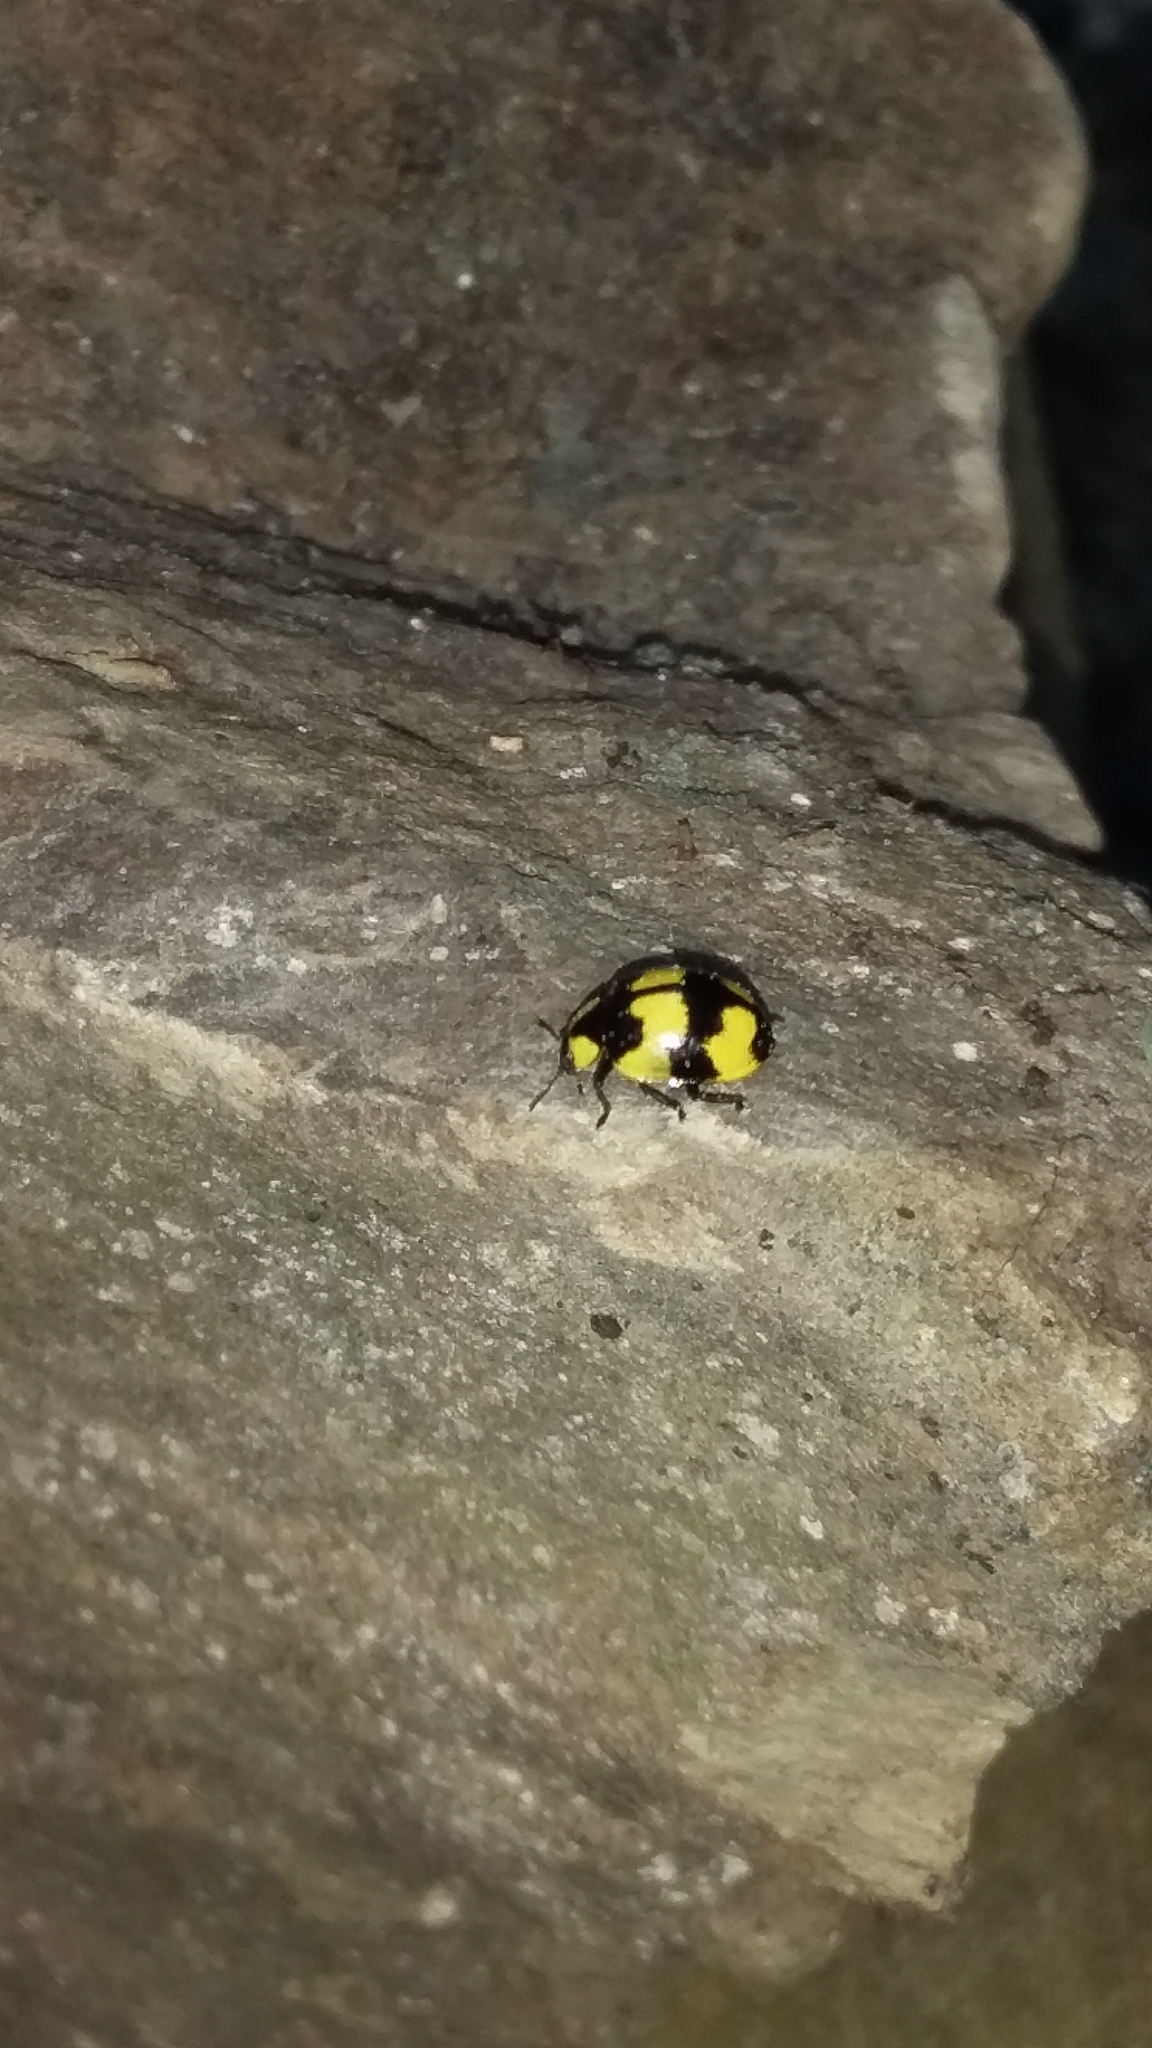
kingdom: Animalia
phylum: Arthropoda
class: Insecta
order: Coleoptera
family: Coccinellidae
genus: Illeis
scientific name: Illeis galbula
